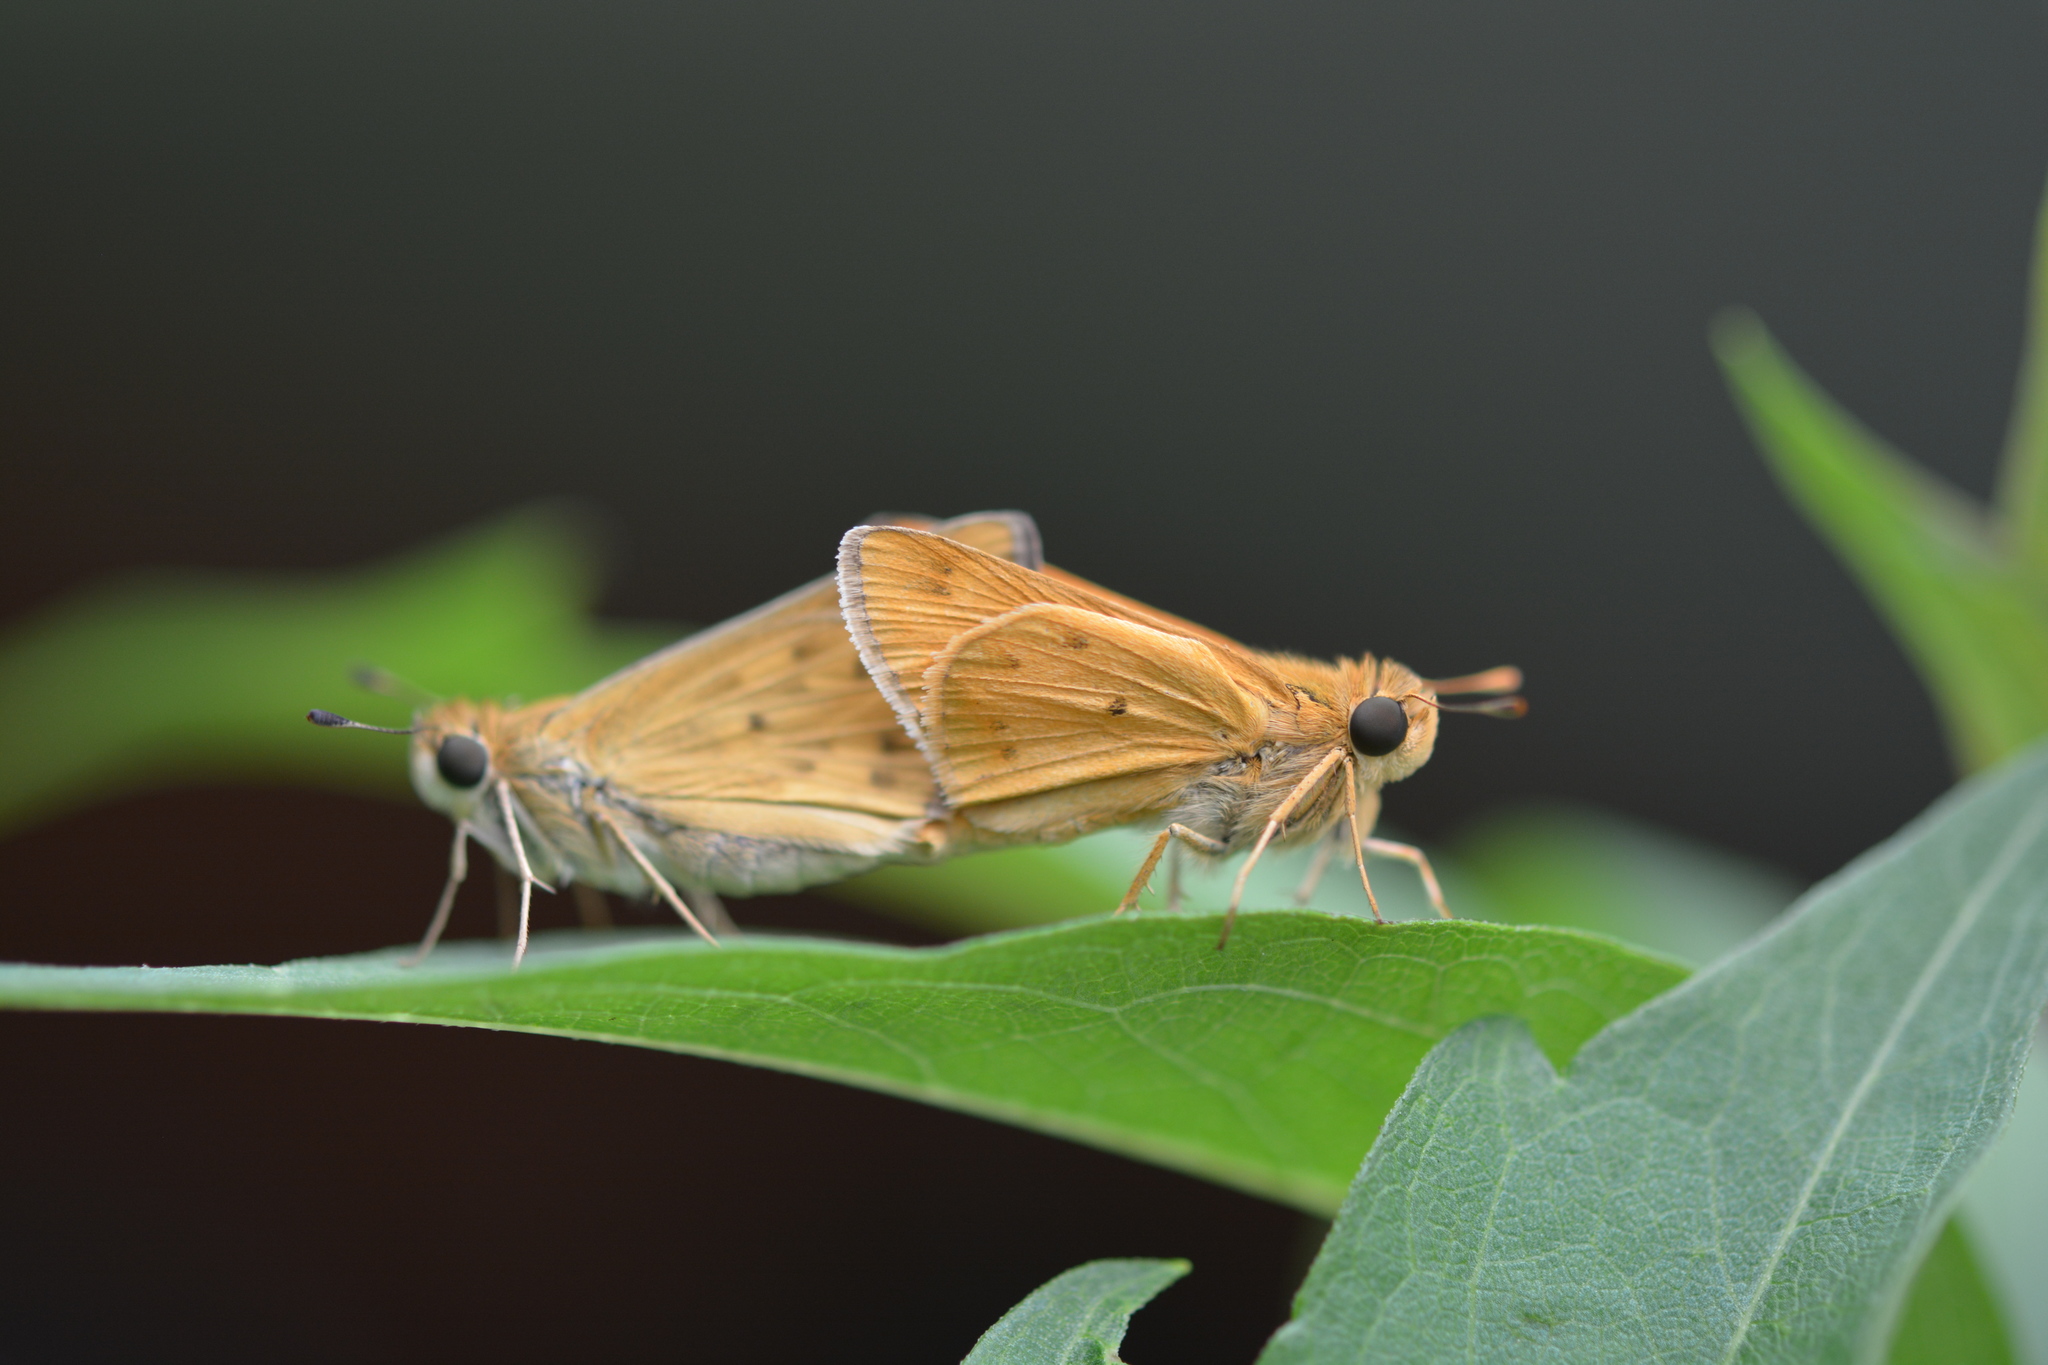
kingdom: Animalia
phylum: Arthropoda
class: Insecta
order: Lepidoptera
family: Hesperiidae
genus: Hylephila
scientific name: Hylephila phyleus
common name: Fiery skipper
